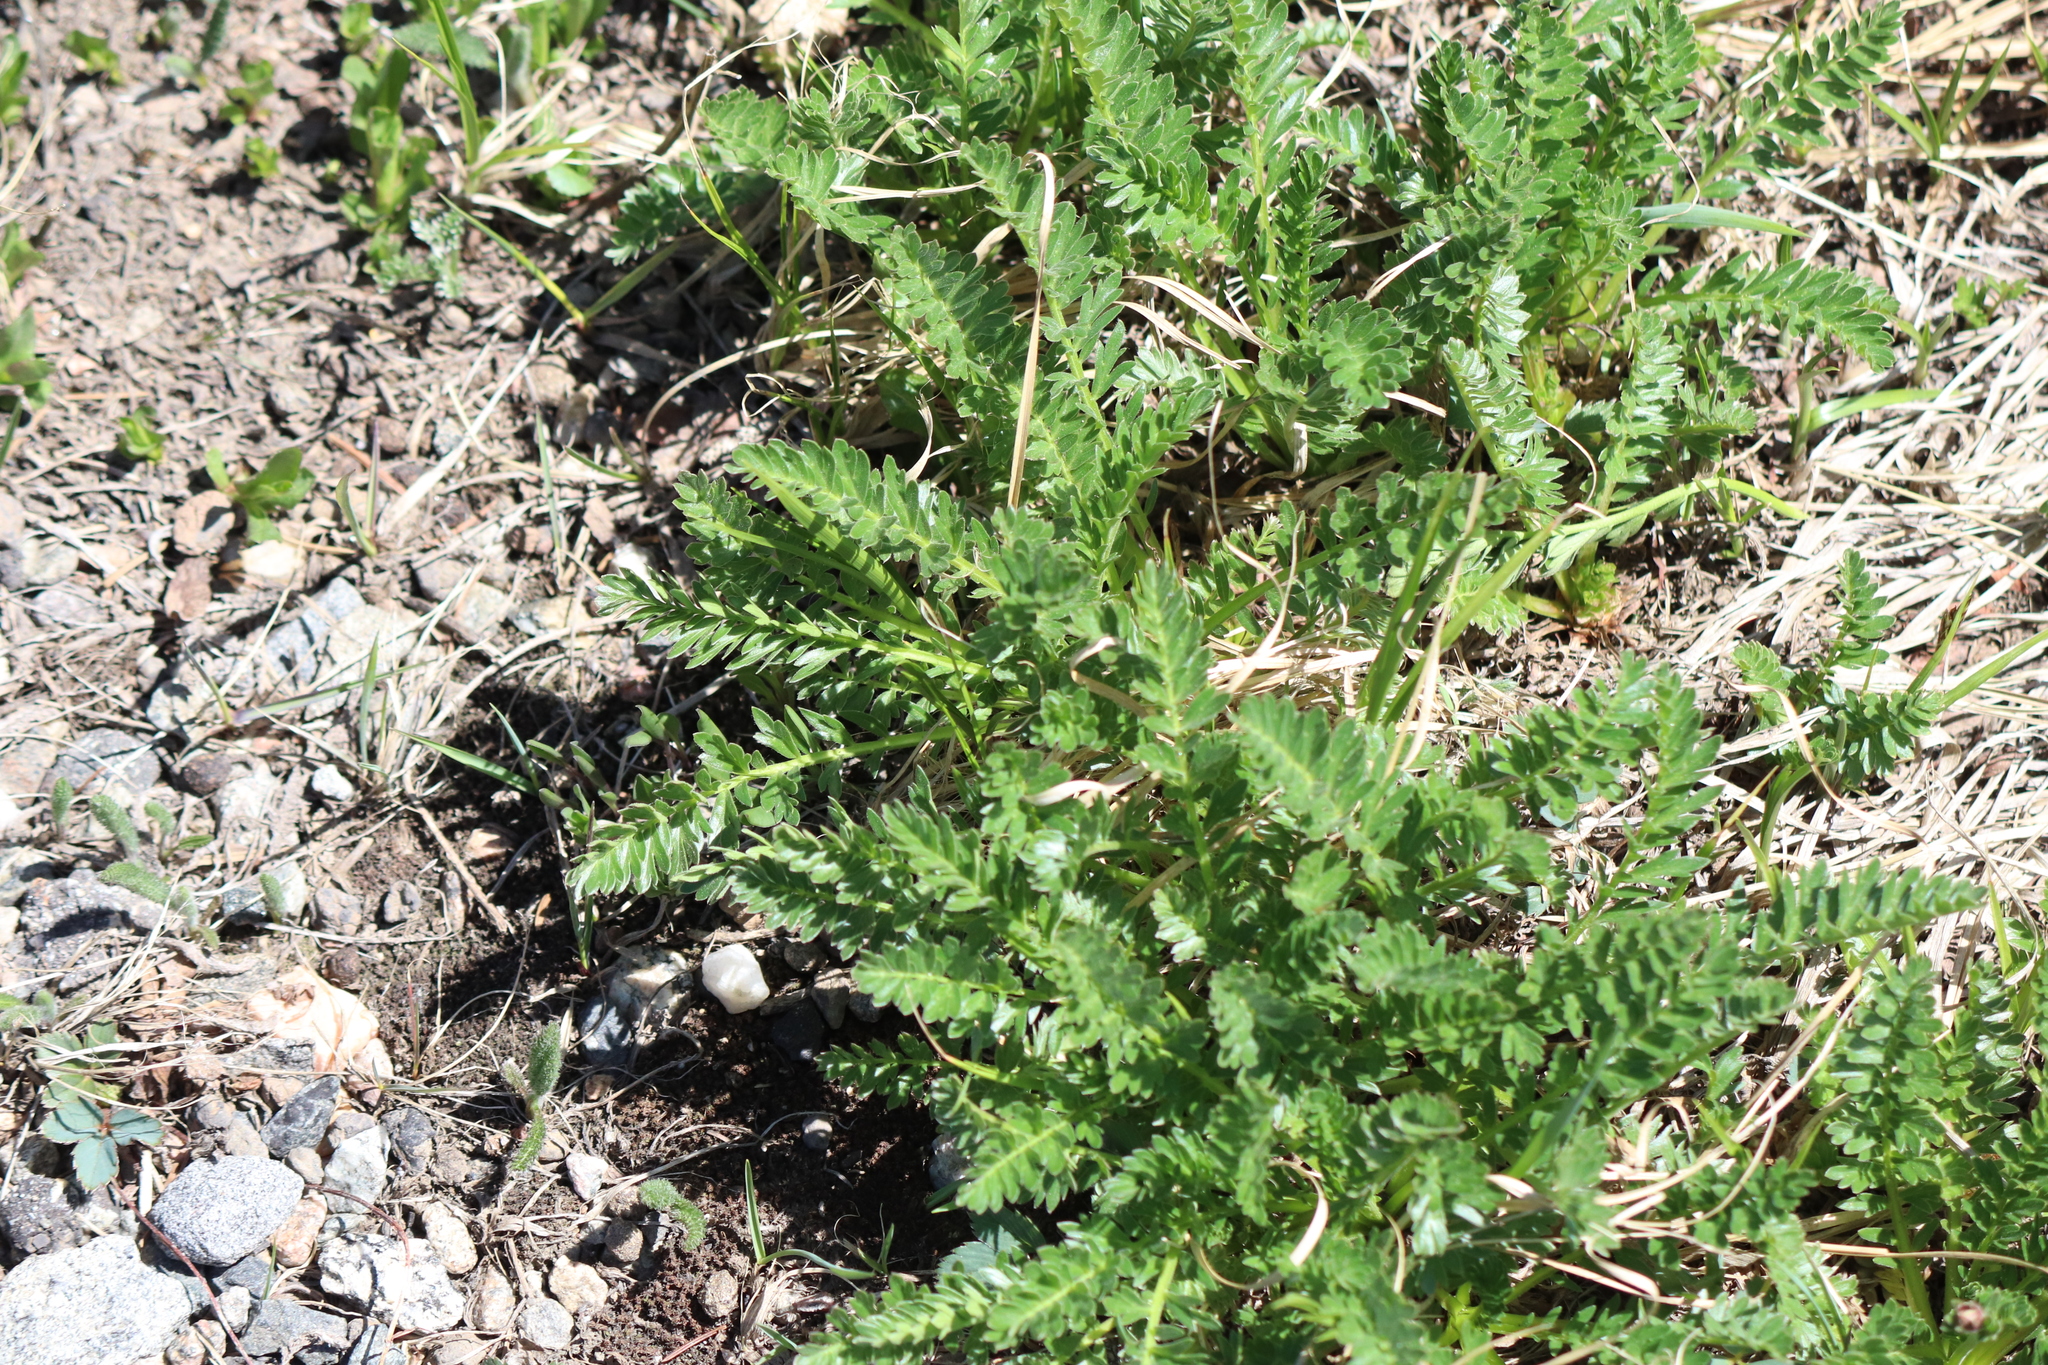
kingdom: Plantae
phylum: Tracheophyta
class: Magnoliopsida
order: Rosales
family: Rosaceae
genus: Geum
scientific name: Geum rossii
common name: Alpine avens
